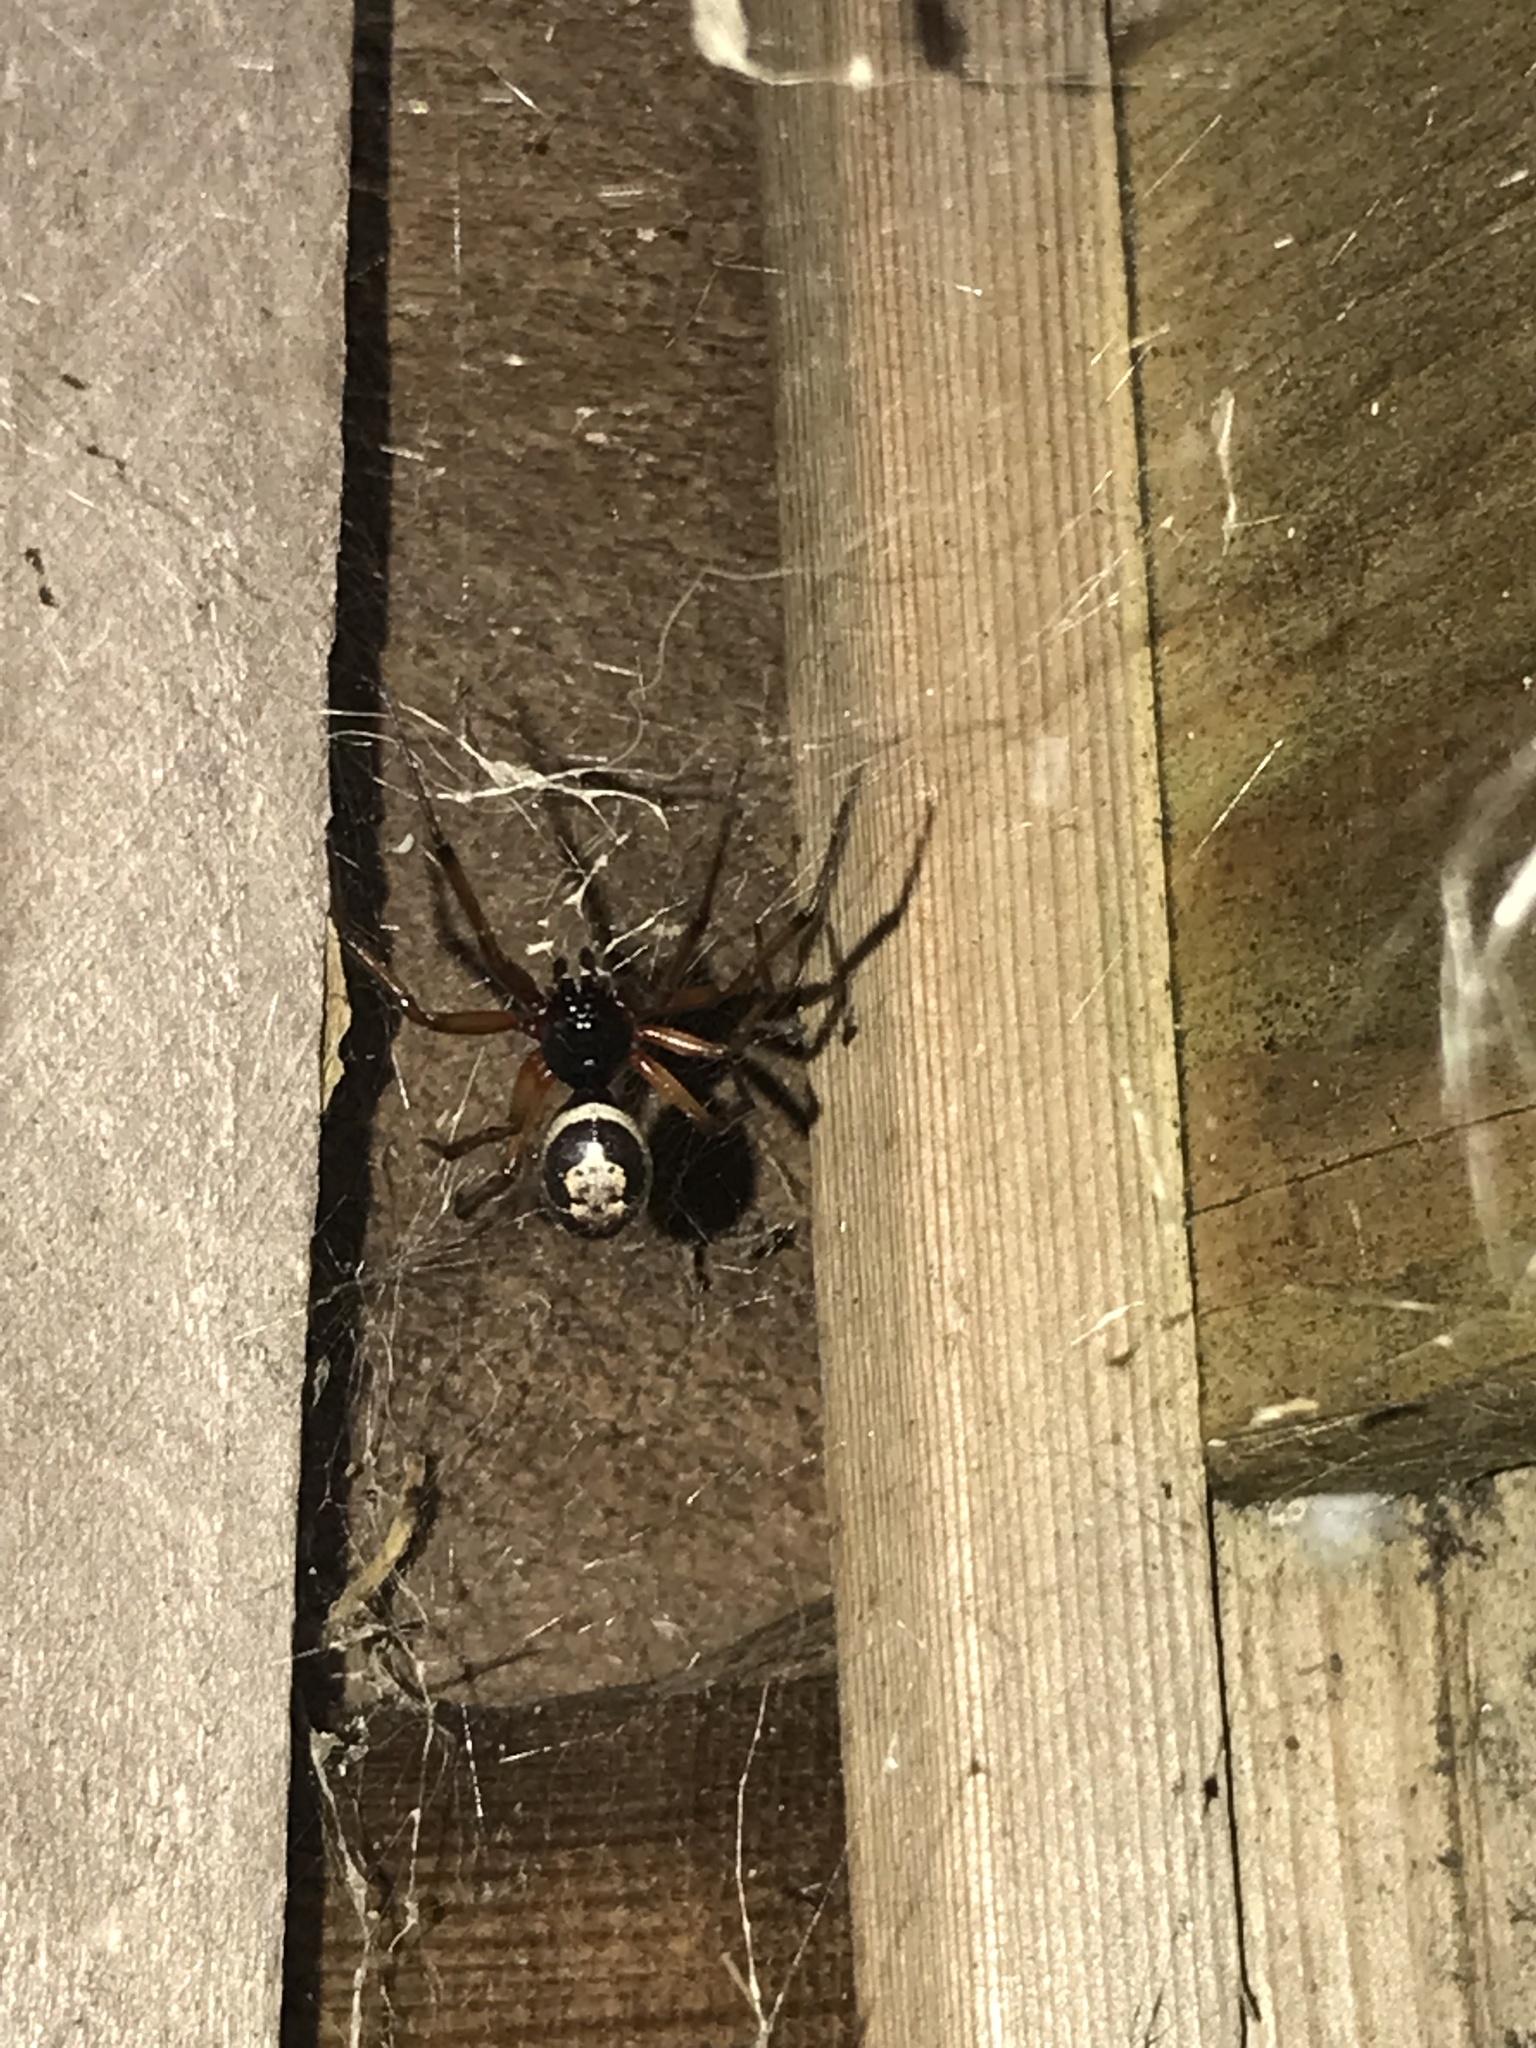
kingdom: Animalia
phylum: Arthropoda
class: Arachnida
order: Araneae
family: Theridiidae
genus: Steatoda
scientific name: Steatoda nobilis
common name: Cobweb weaver
